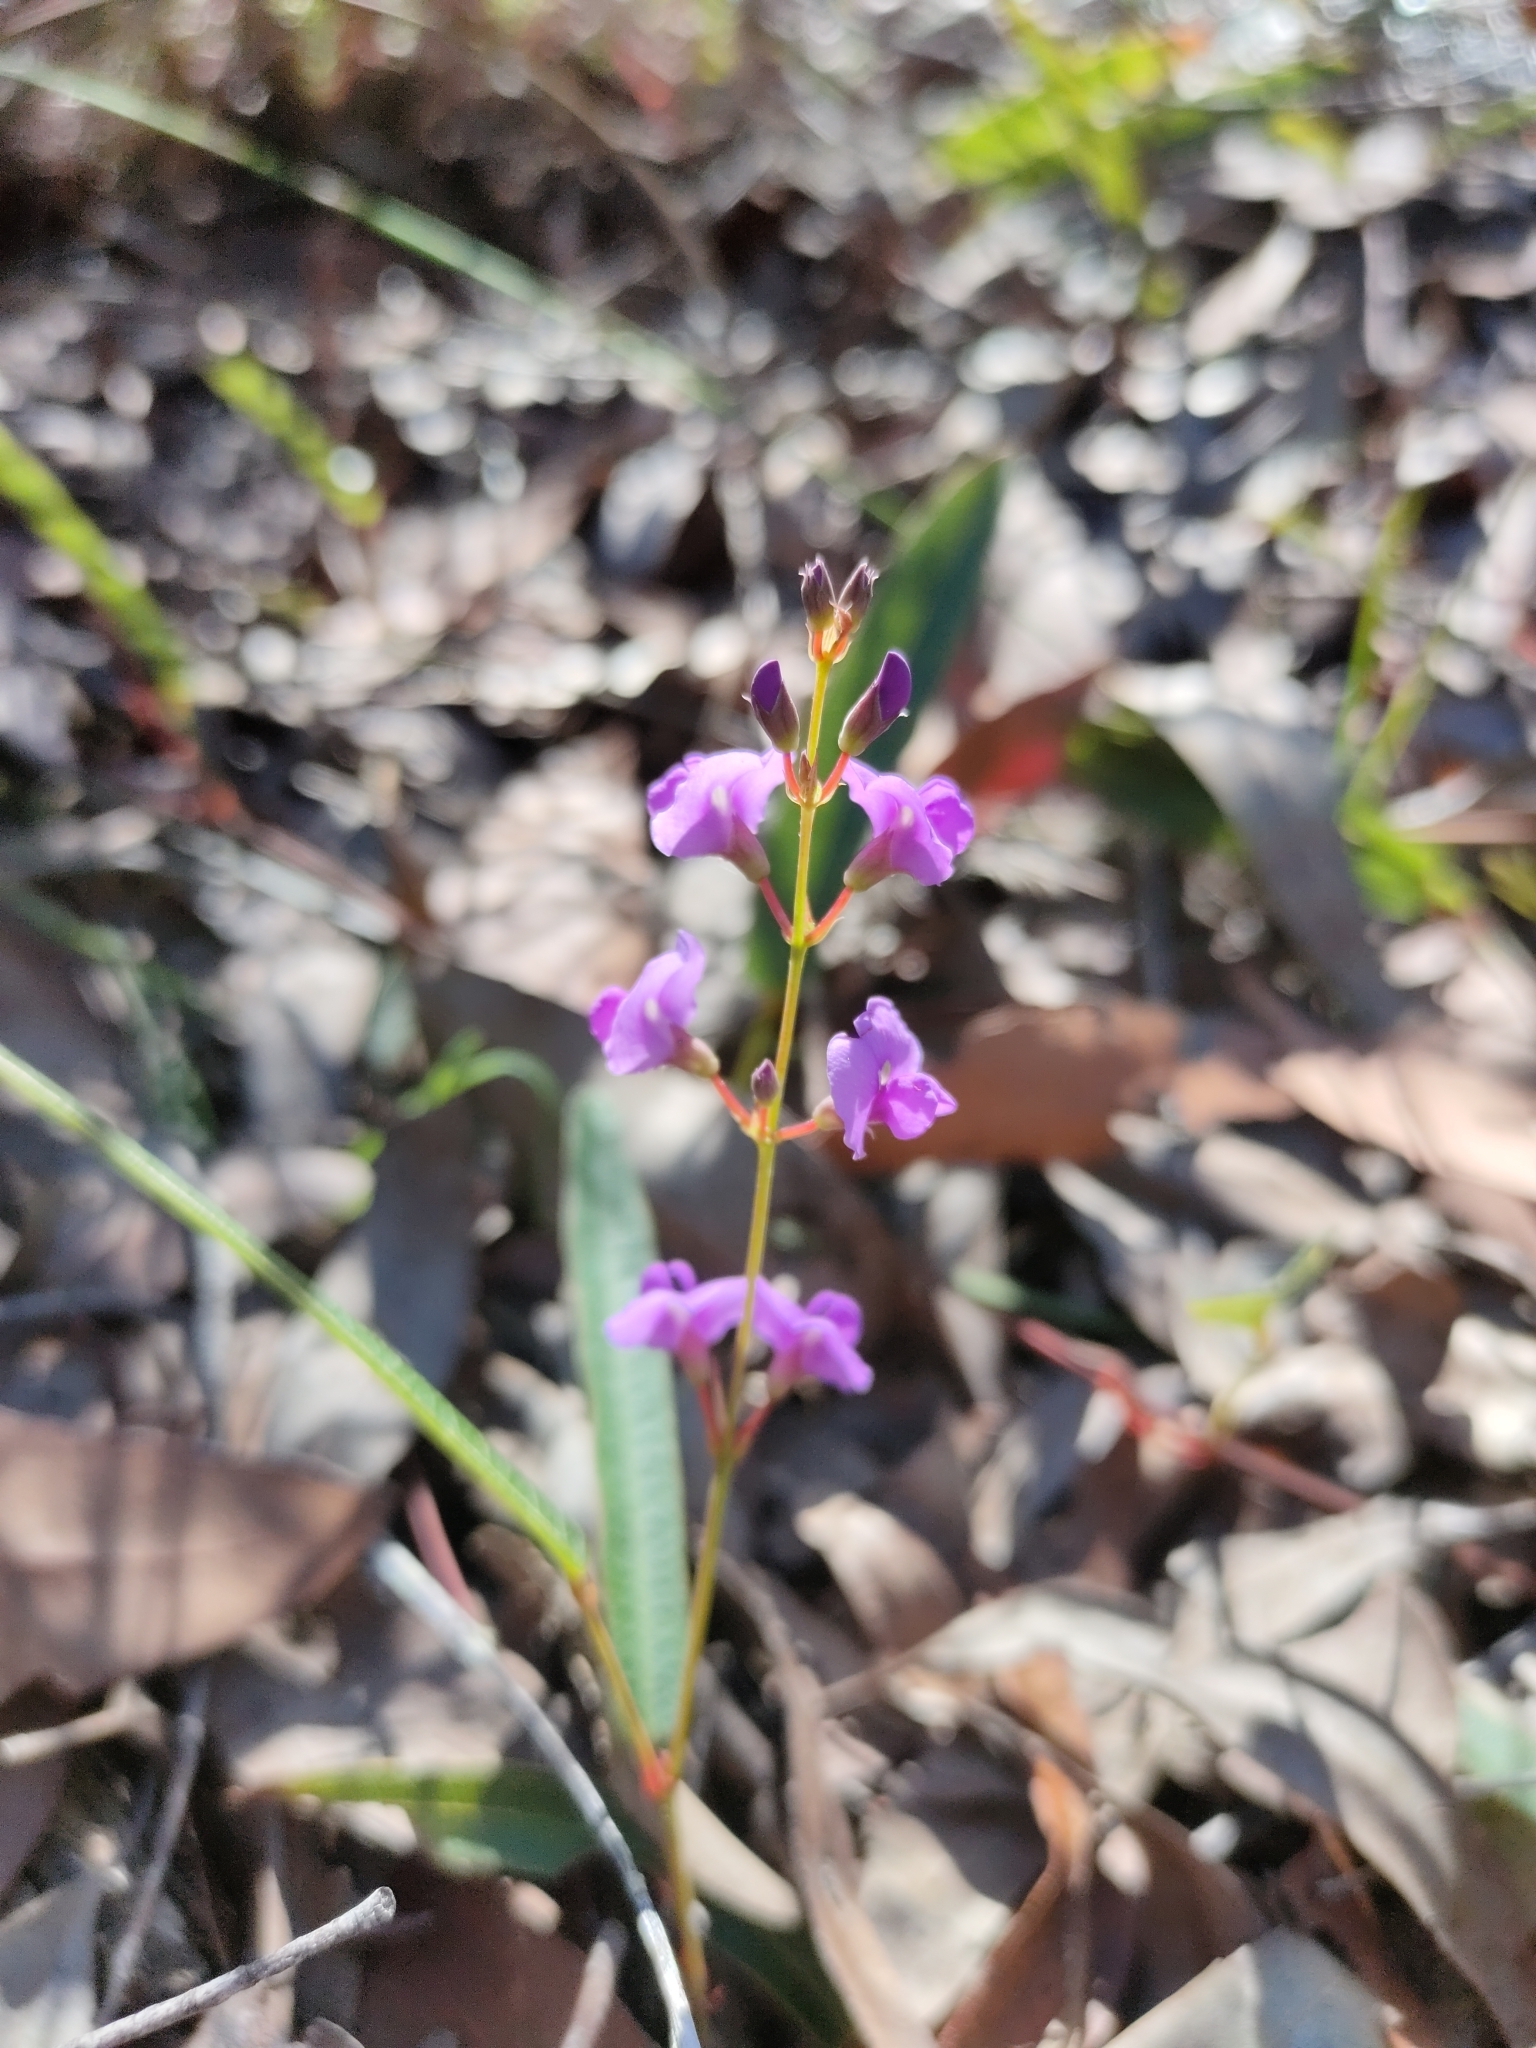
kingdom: Plantae
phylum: Tracheophyta
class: Magnoliopsida
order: Fabales
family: Fabaceae
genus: Hardenbergia
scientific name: Hardenbergia violacea
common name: Coral-pea
